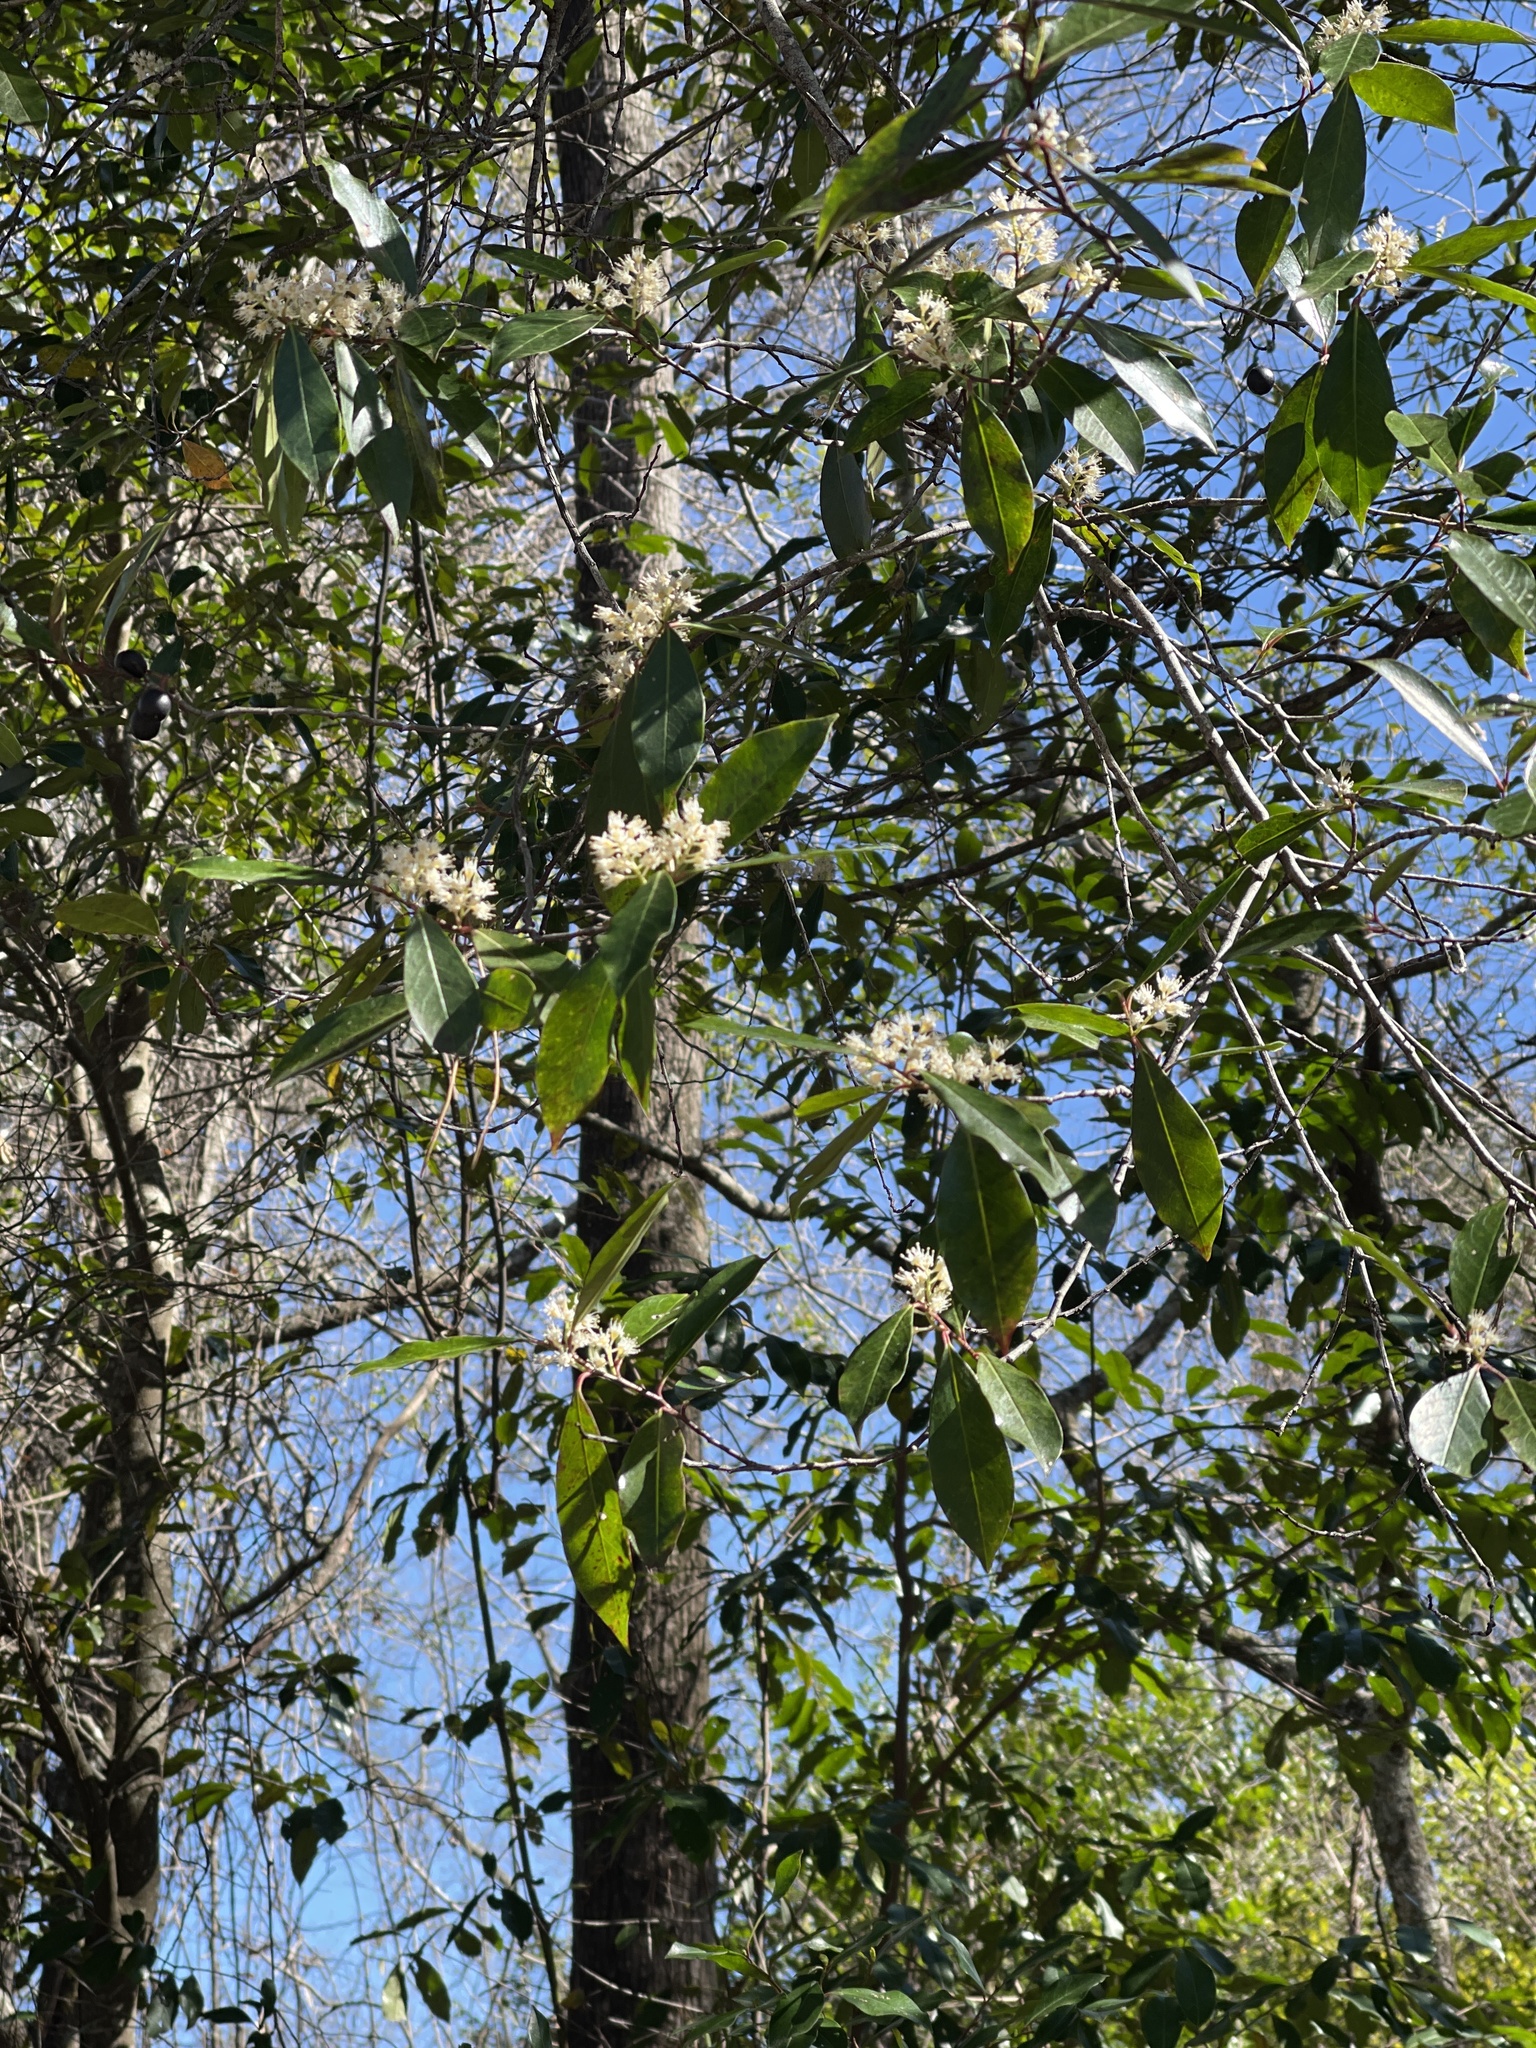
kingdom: Plantae
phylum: Tracheophyta
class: Magnoliopsida
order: Rosales
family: Rosaceae
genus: Prunus
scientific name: Prunus caroliniana
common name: Carolina laurel cherry
